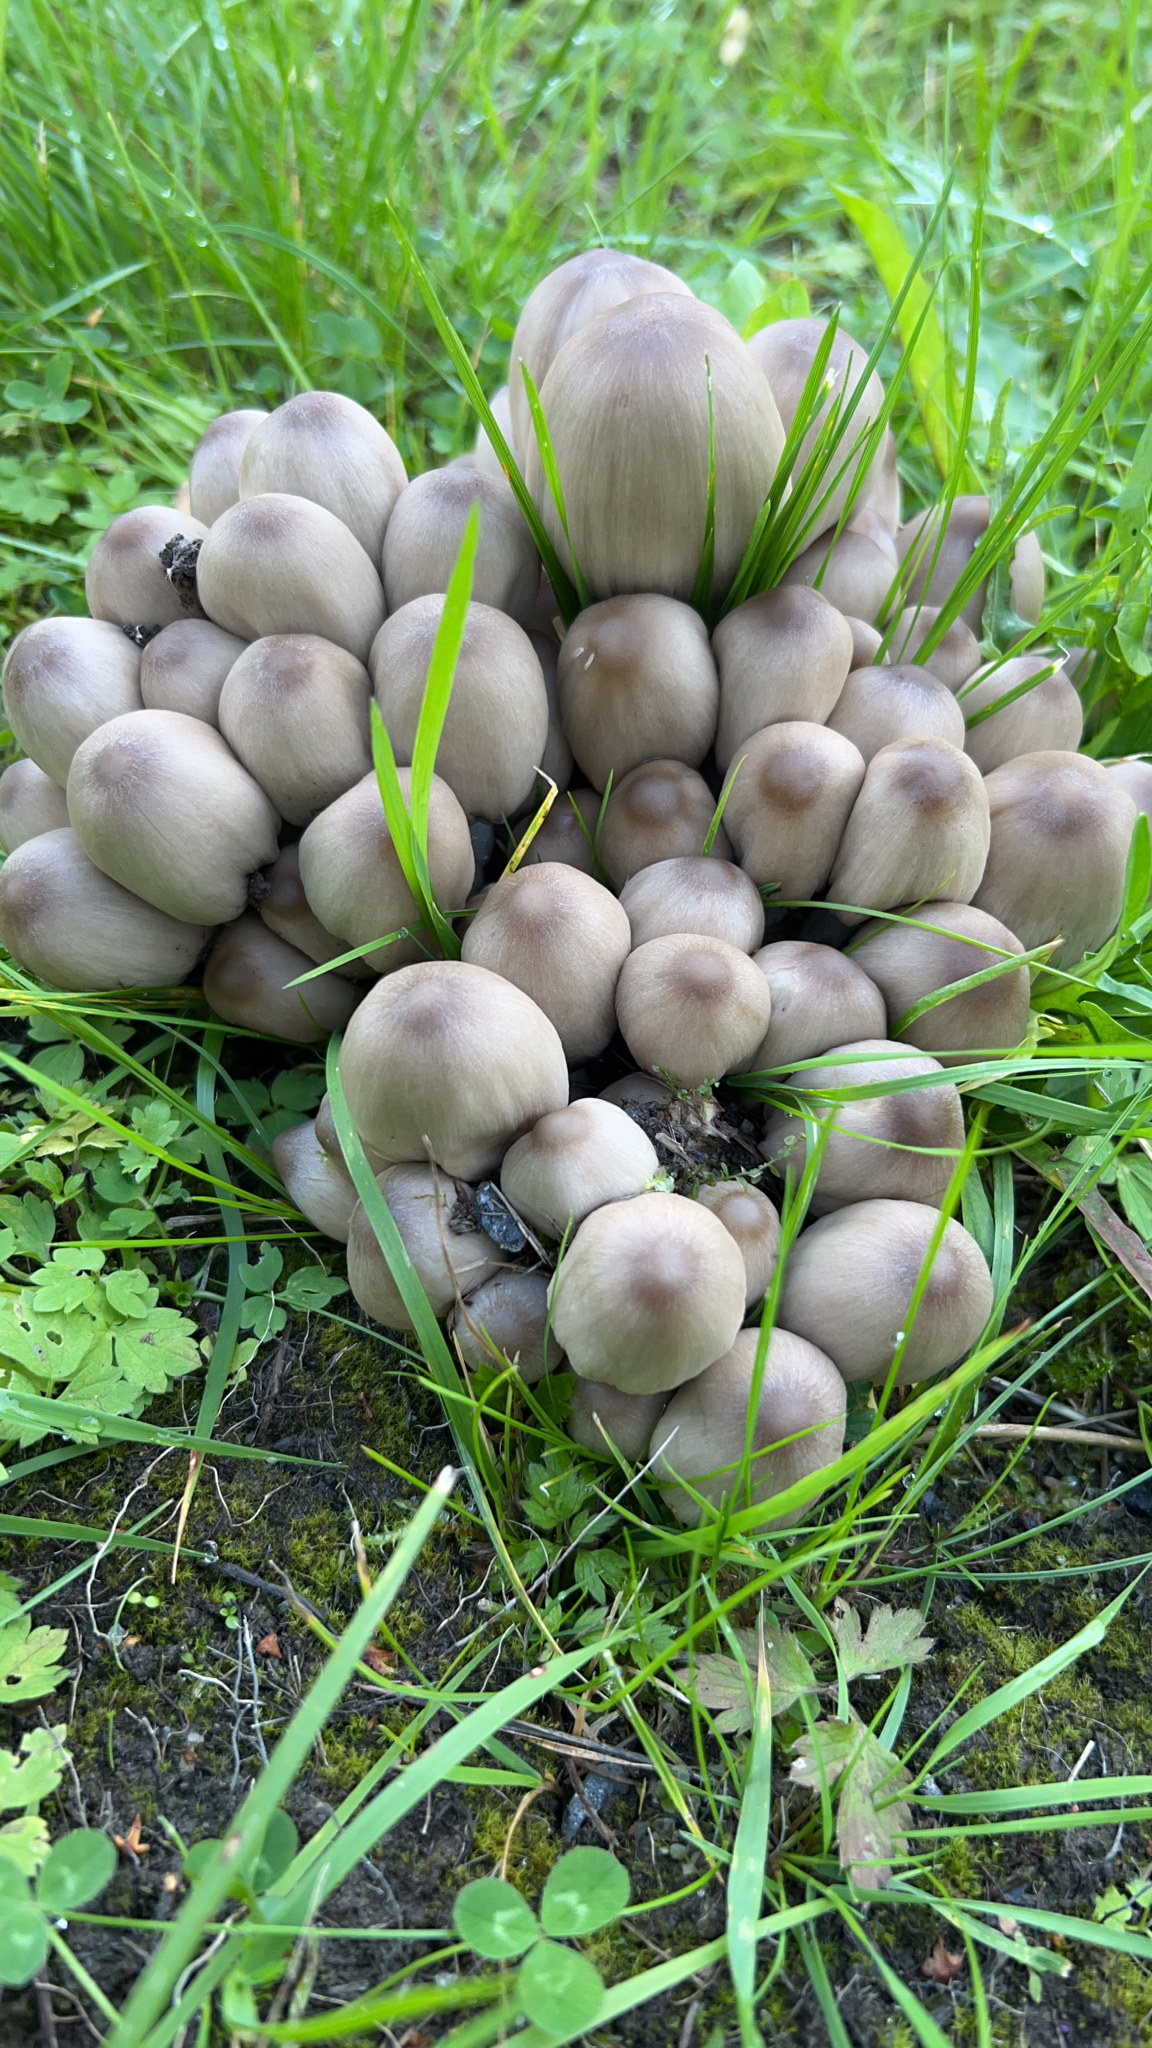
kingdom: Fungi
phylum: Basidiomycota
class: Agaricomycetes
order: Agaricales
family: Psathyrellaceae
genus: Coprinopsis
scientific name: Coprinopsis atramentaria
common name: Common ink-cap
